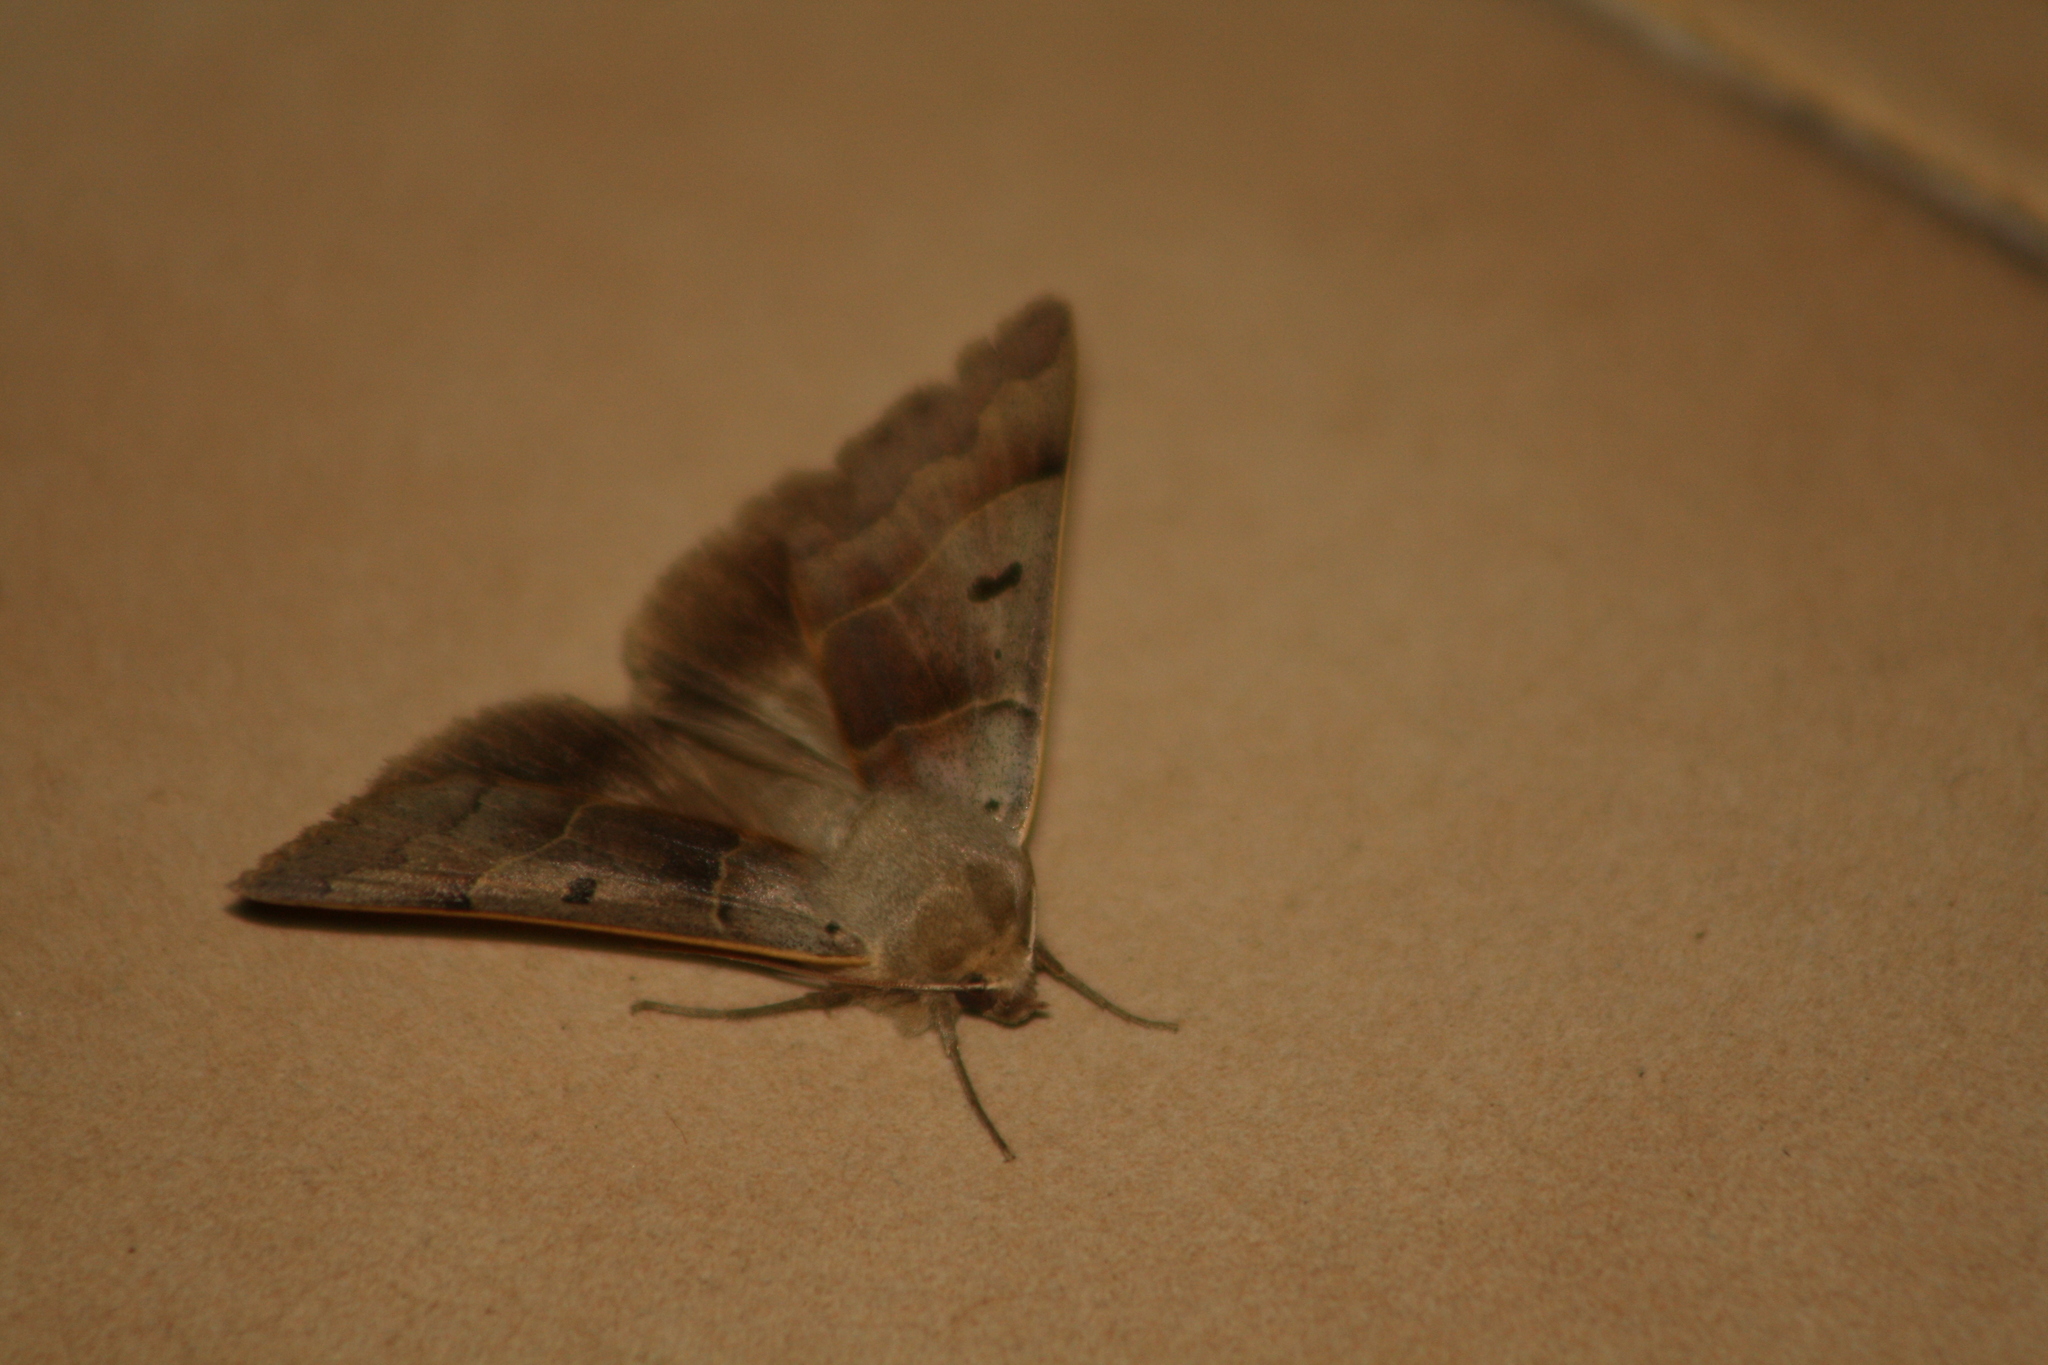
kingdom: Animalia
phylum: Arthropoda
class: Insecta
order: Lepidoptera
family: Erebidae
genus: Minucia
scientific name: Minucia lunaris
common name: Lunar double-stripe
